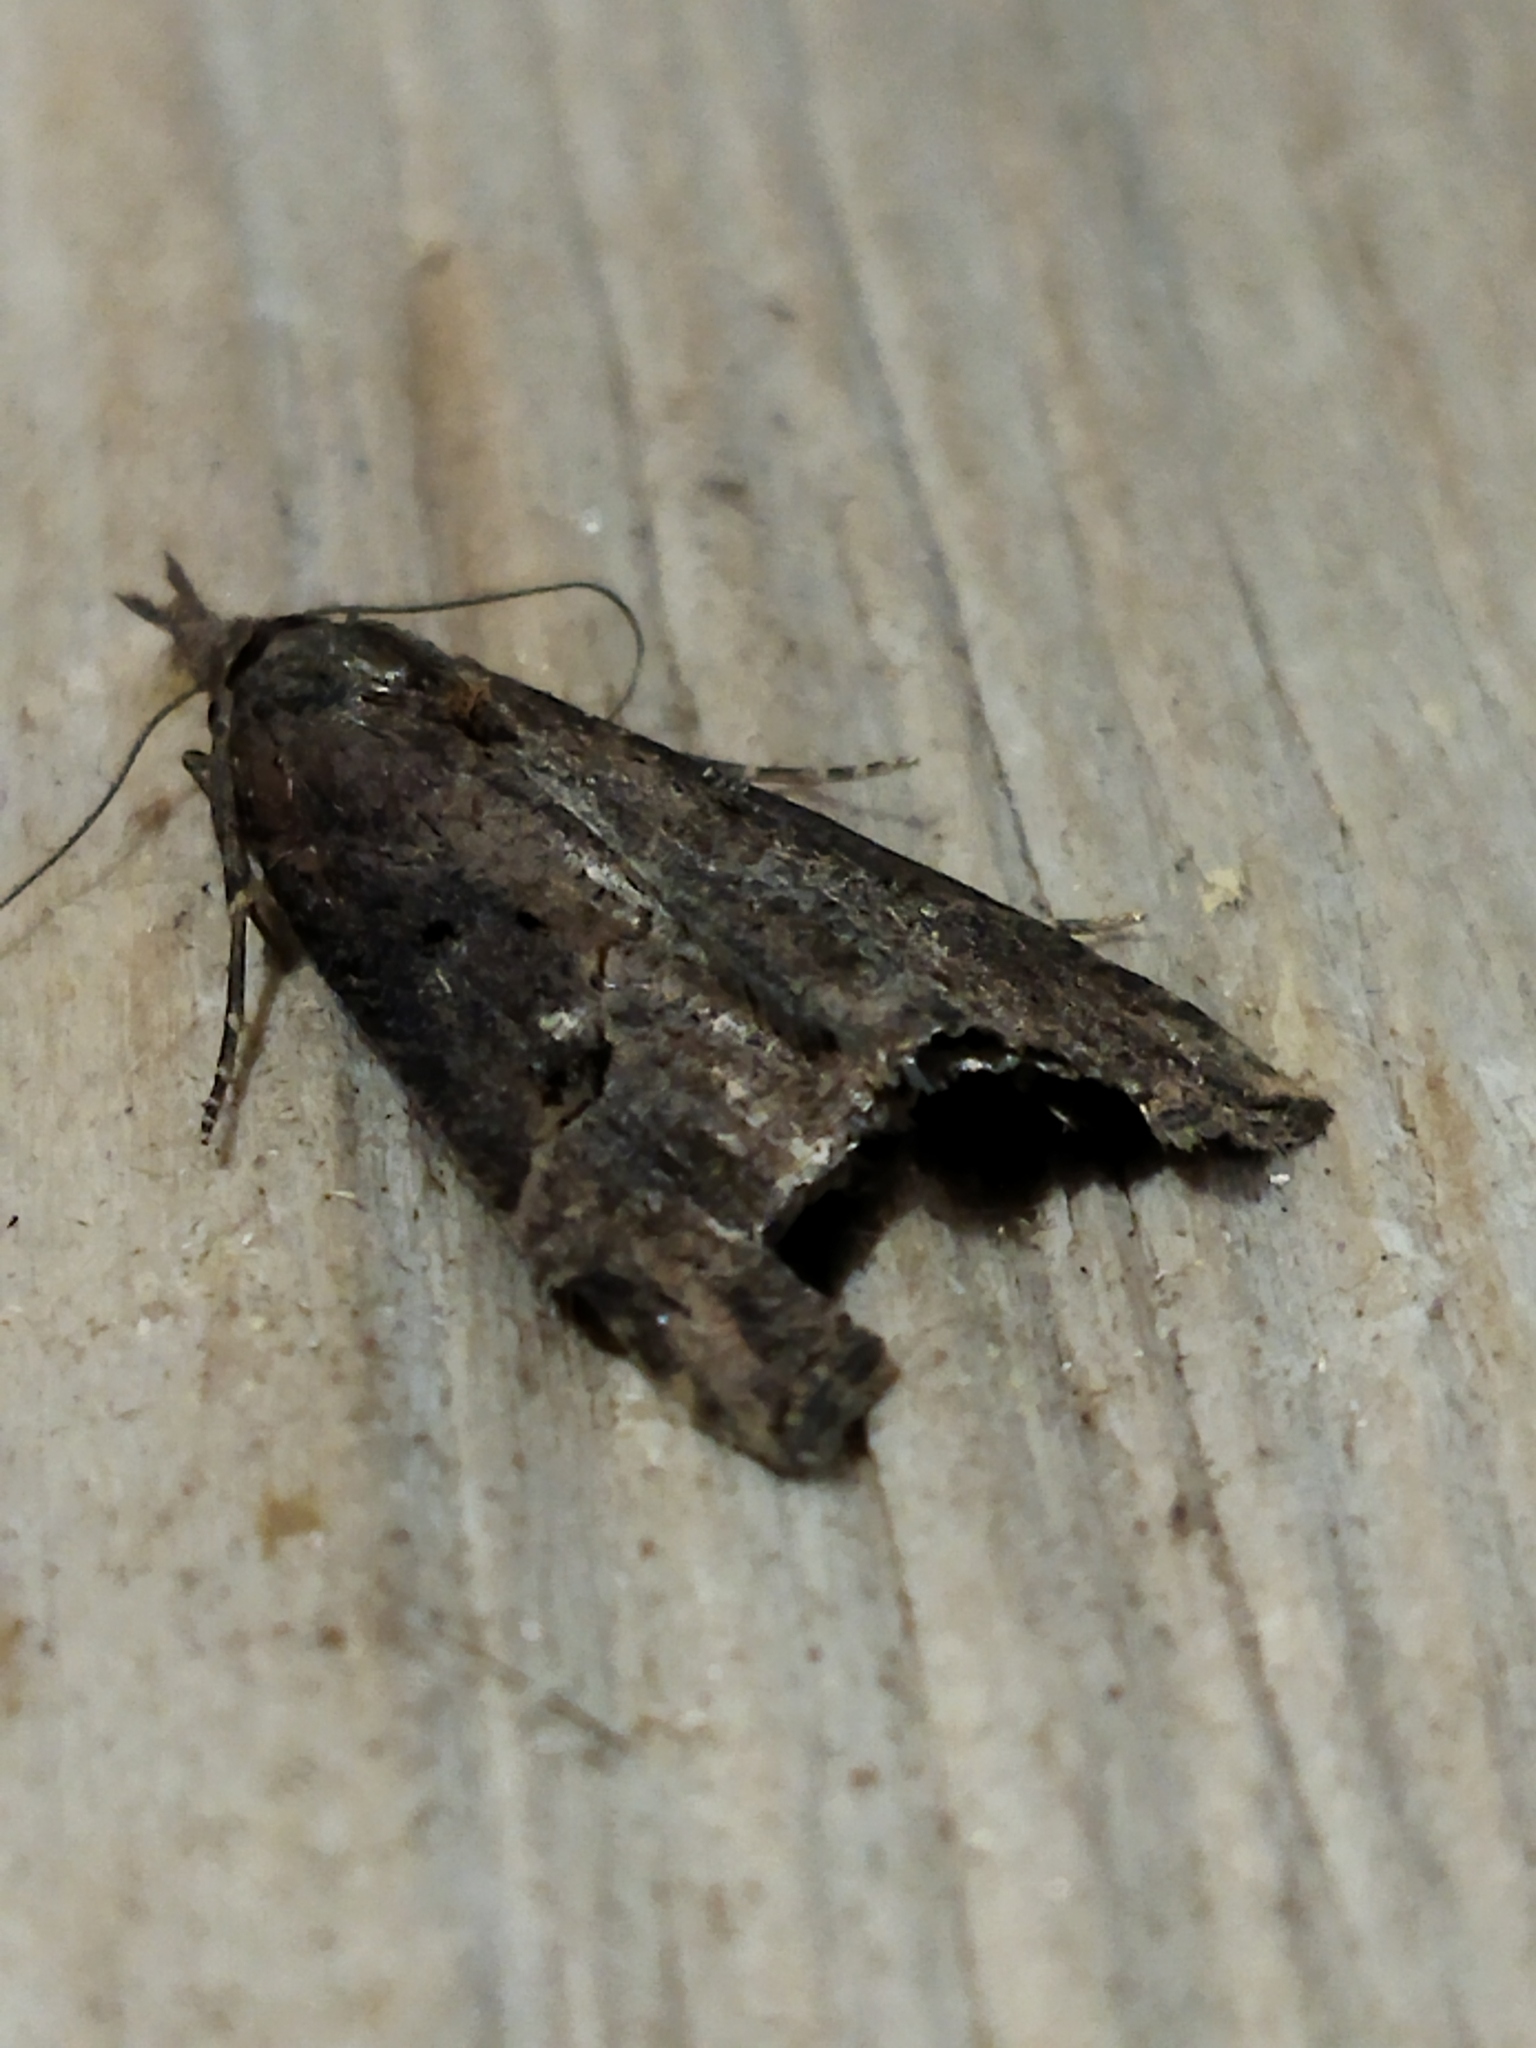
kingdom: Animalia
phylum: Arthropoda
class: Insecta
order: Lepidoptera
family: Erebidae
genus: Hypena
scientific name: Hypena rostralis
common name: Buttoned snout
